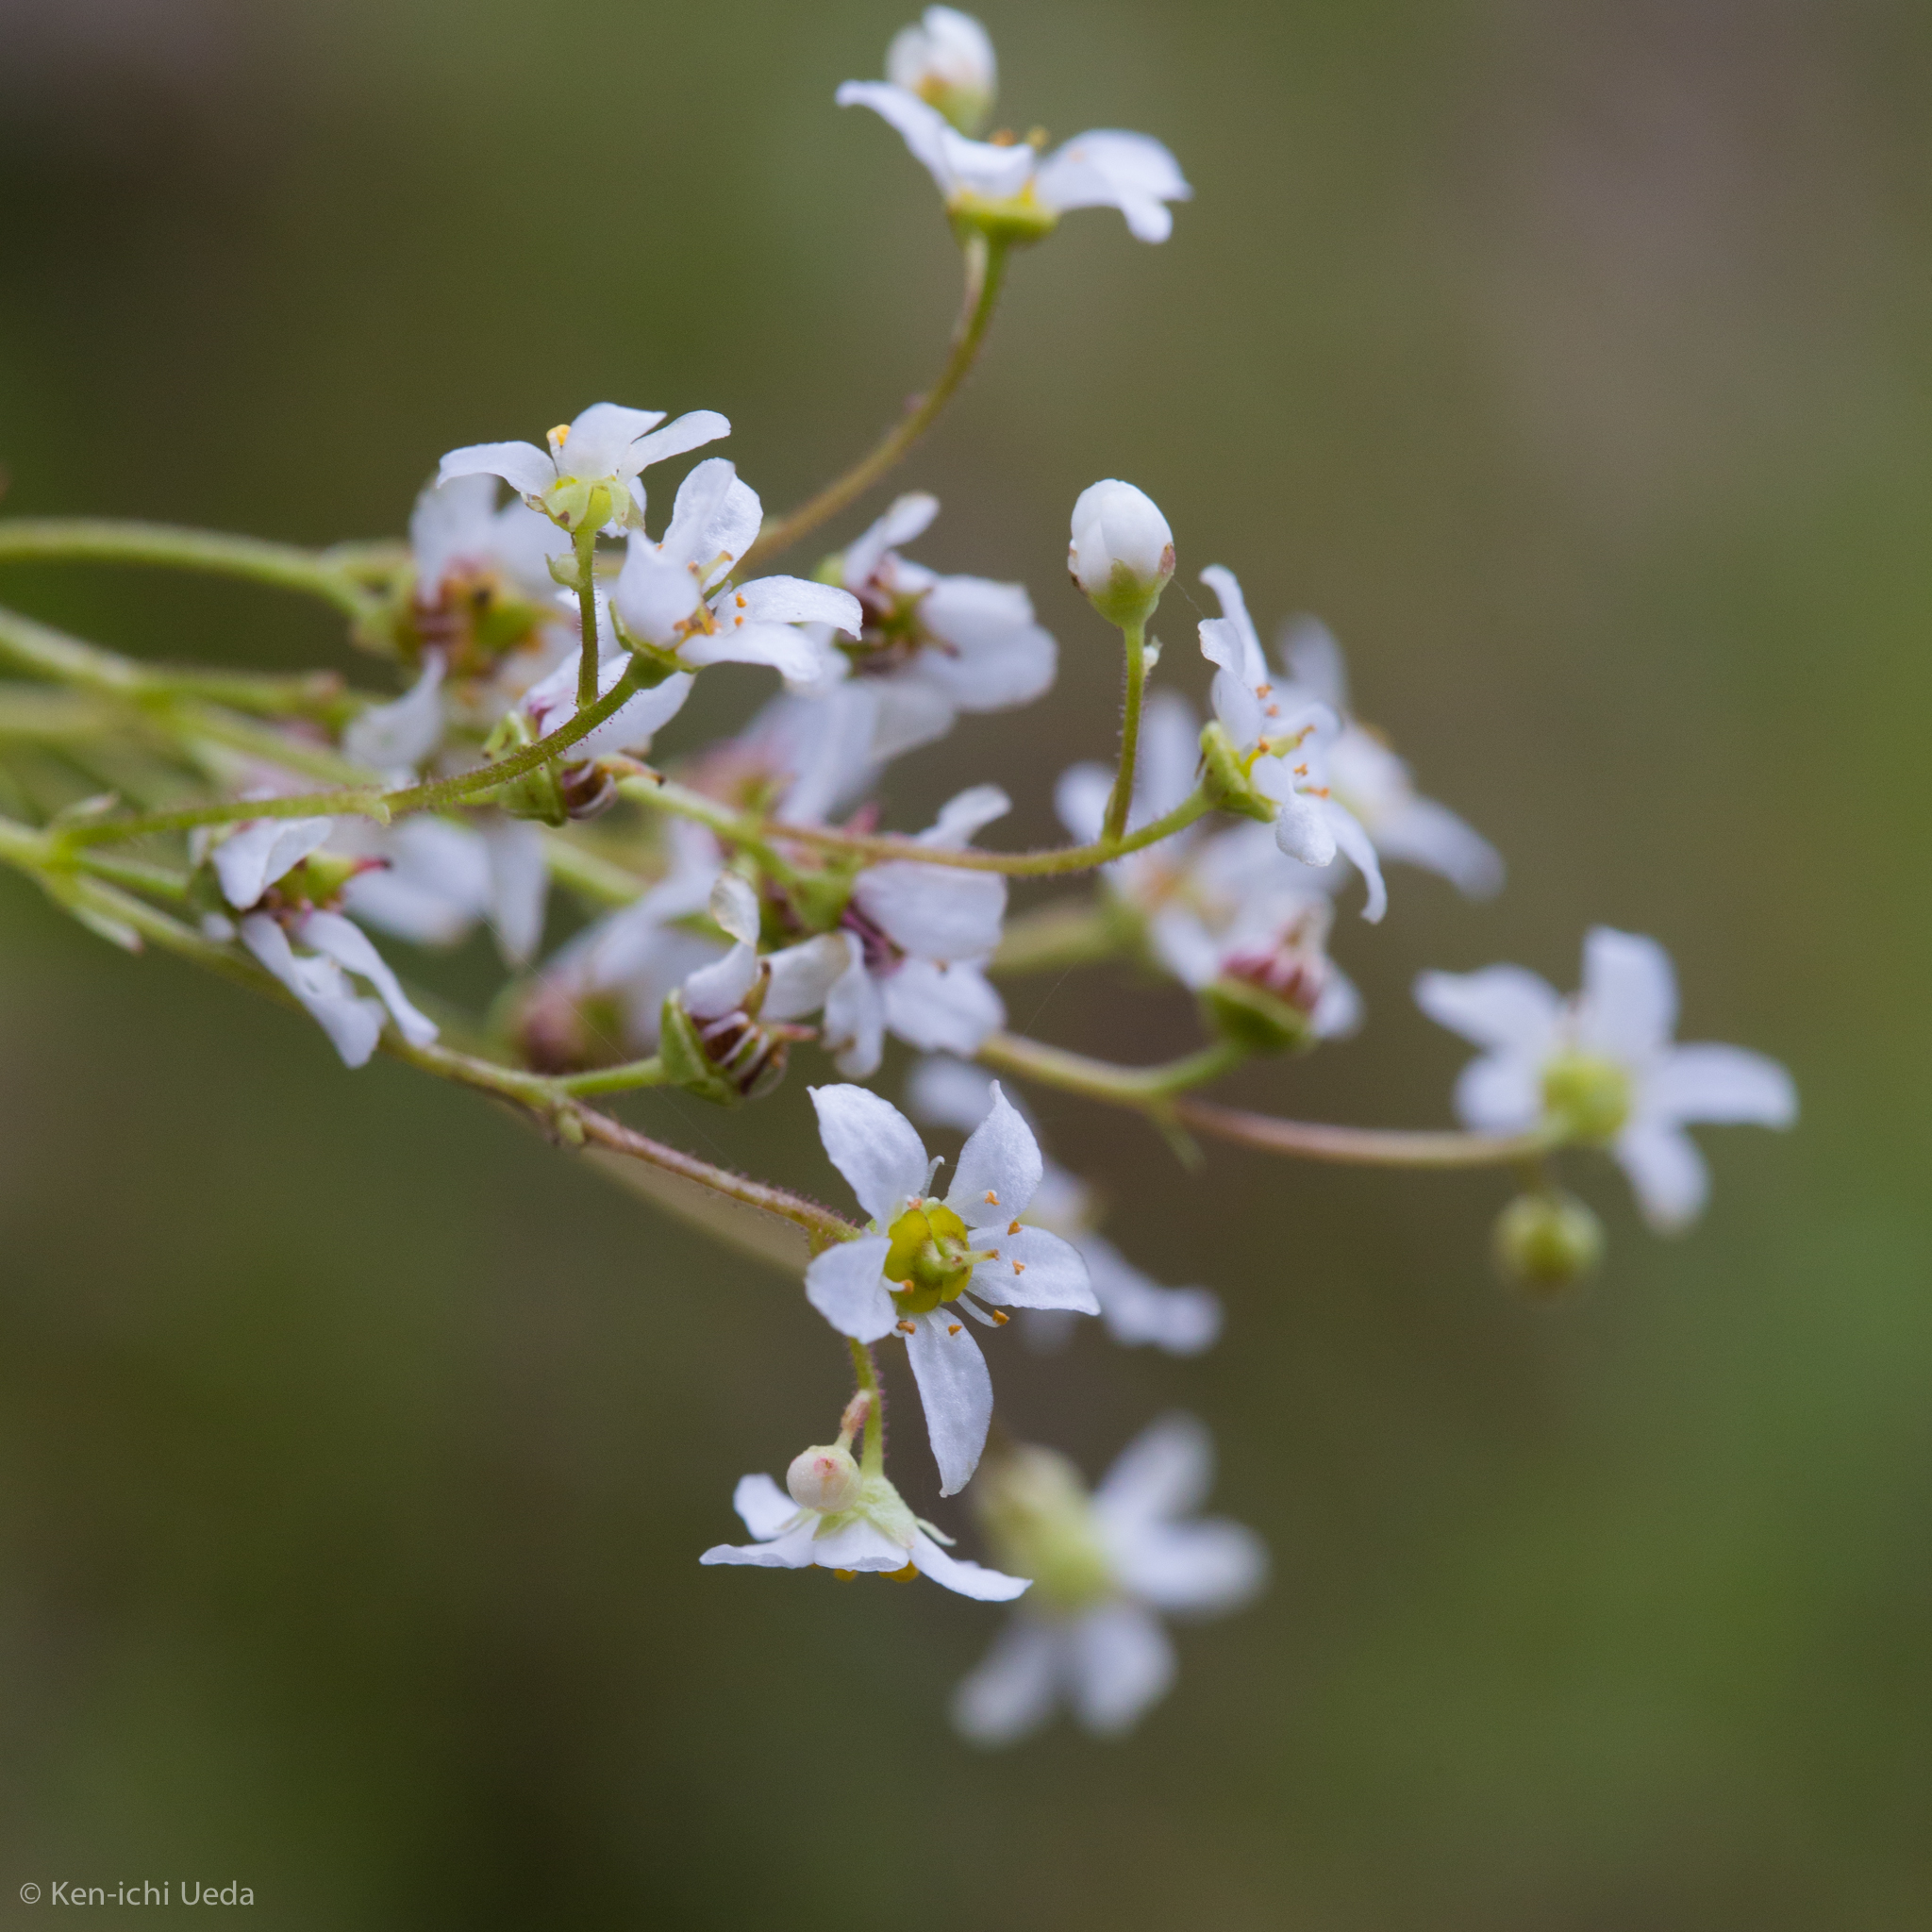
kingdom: Plantae
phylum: Tracheophyta
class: Magnoliopsida
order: Saxifragales
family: Saxifragaceae
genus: Micranthes
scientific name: Micranthes californica
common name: California saxifrage
